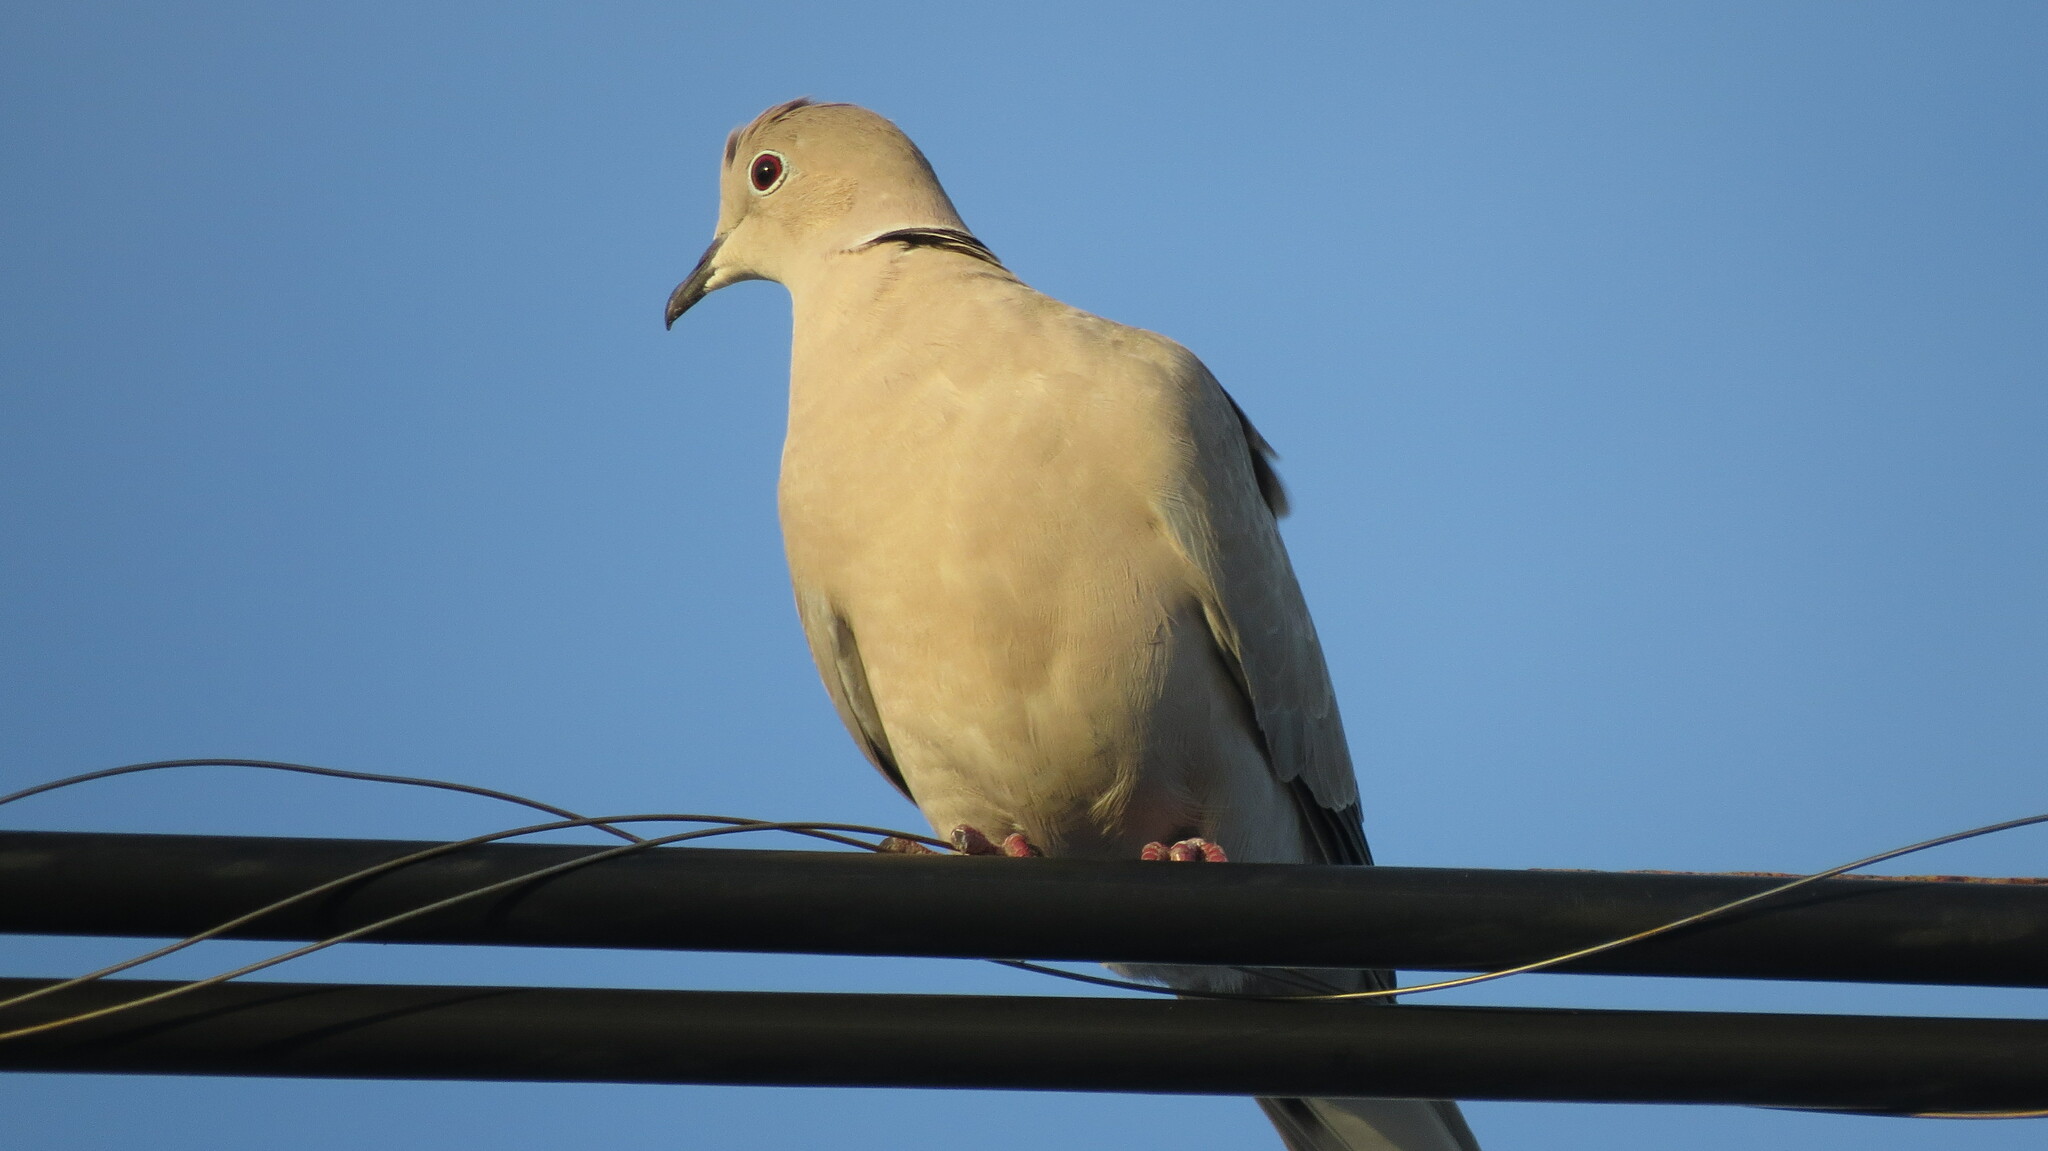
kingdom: Animalia
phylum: Chordata
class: Aves
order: Columbiformes
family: Columbidae
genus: Streptopelia
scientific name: Streptopelia decaocto
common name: Eurasian collared dove
